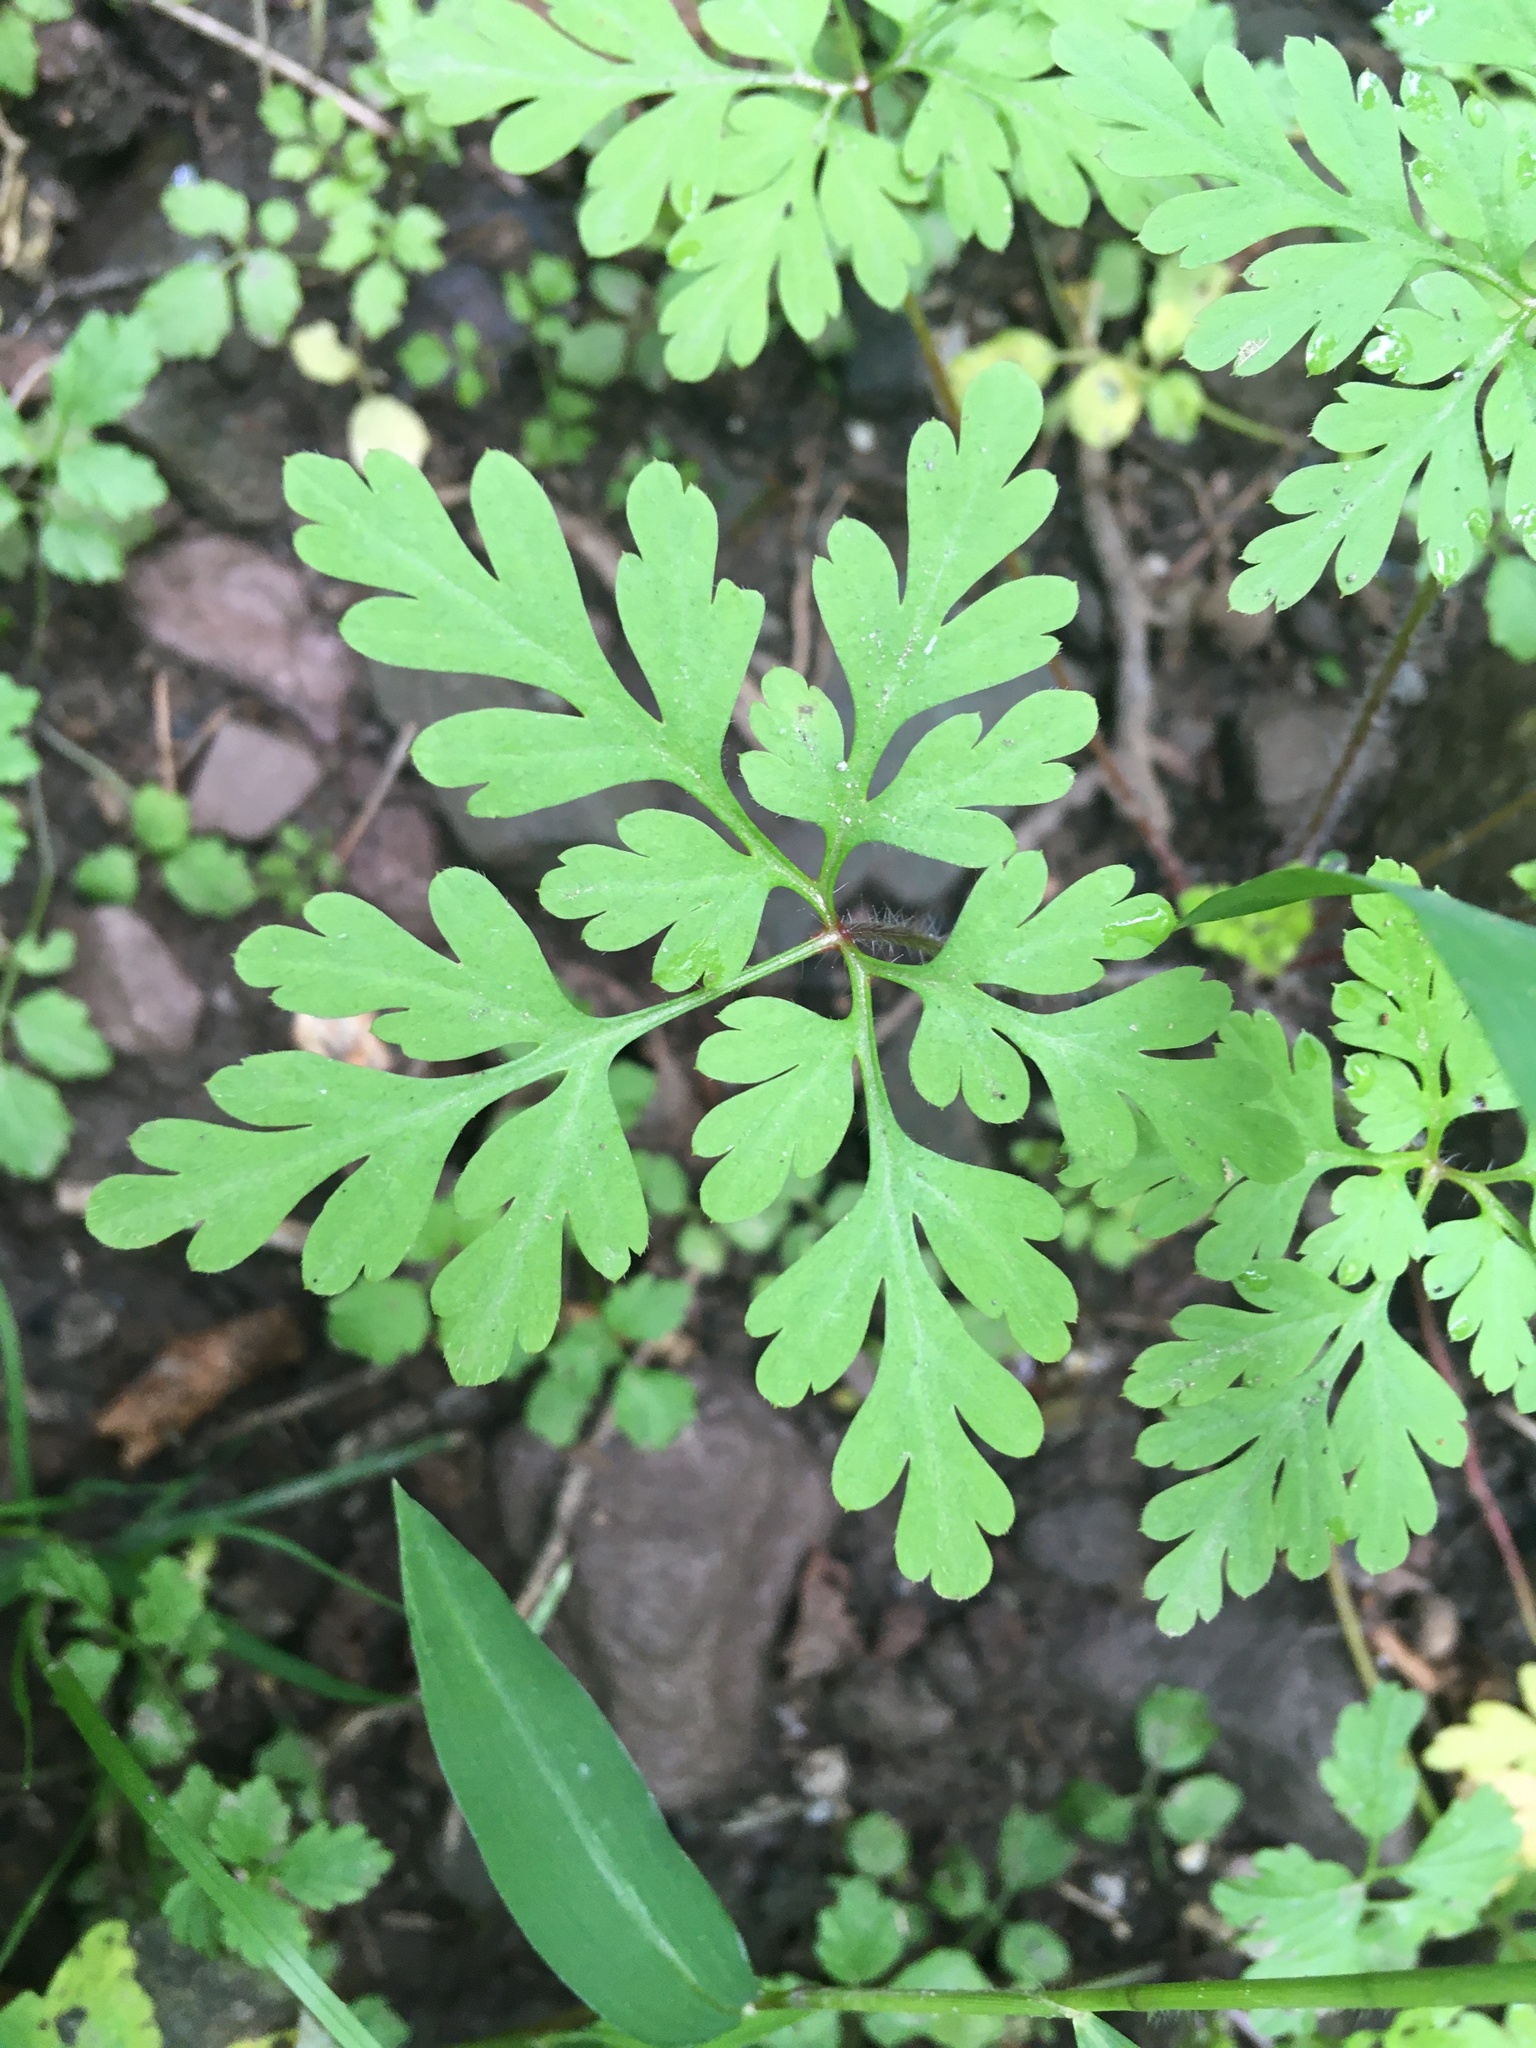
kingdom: Plantae
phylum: Tracheophyta
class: Magnoliopsida
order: Geraniales
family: Geraniaceae
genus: Geranium
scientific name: Geranium robertianum
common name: Herb-robert
